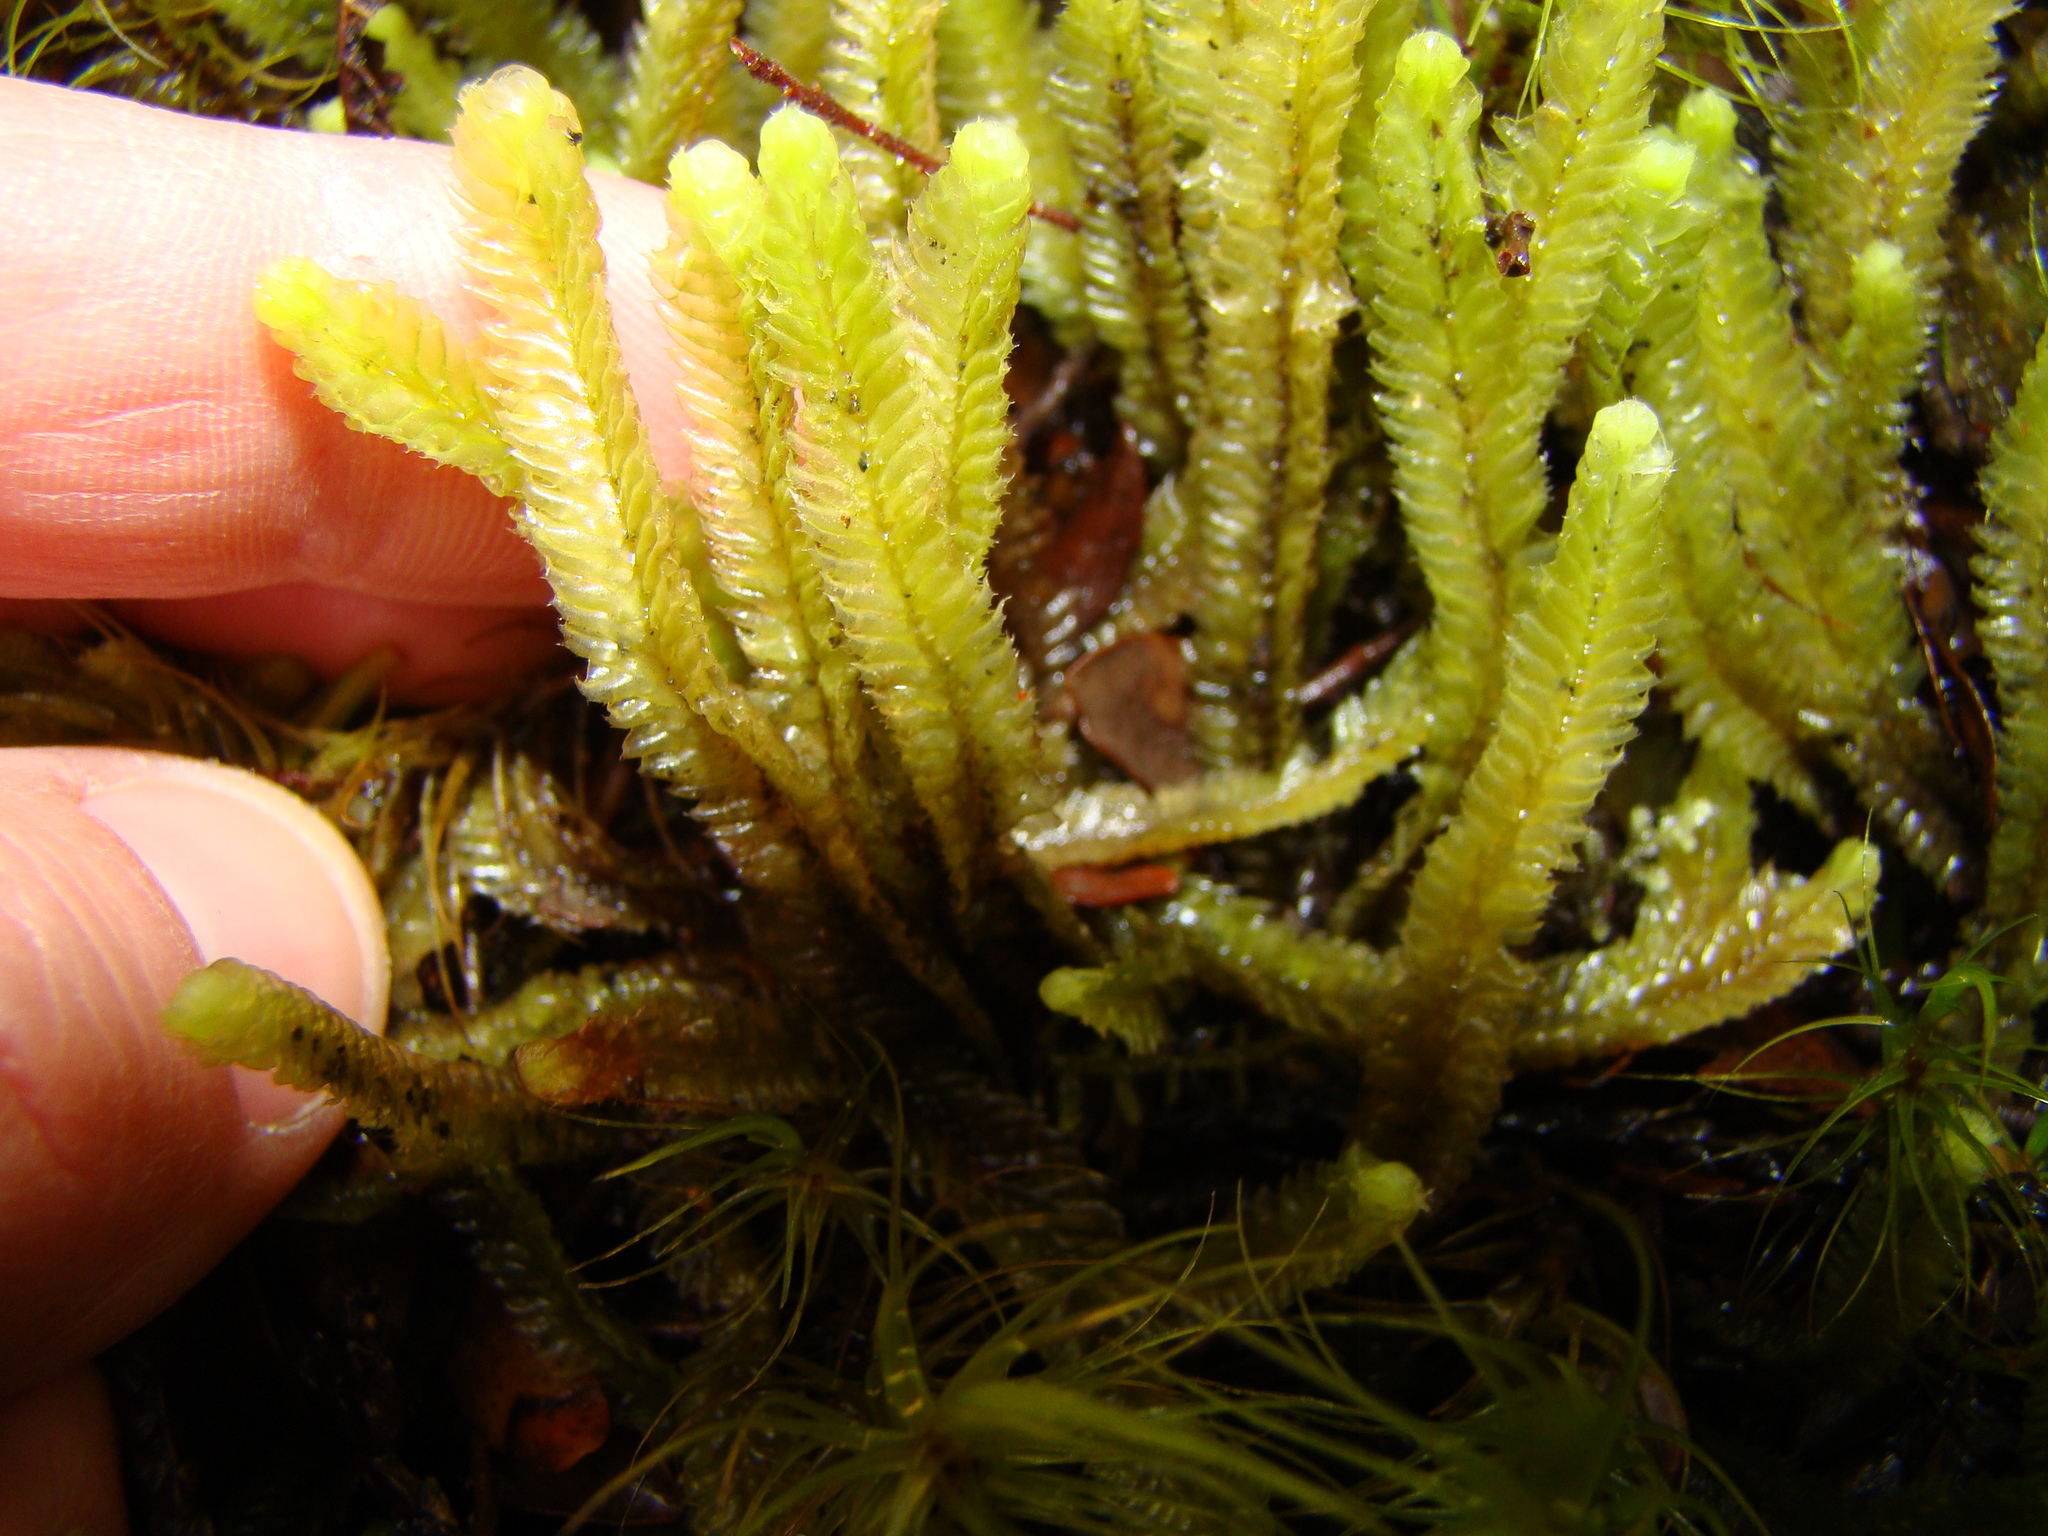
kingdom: Plantae
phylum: Marchantiophyta
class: Jungermanniopsida
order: Jungermanniales
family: Lophocoleaceae
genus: Heteroscyphus
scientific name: Heteroscyphus ciliatus
